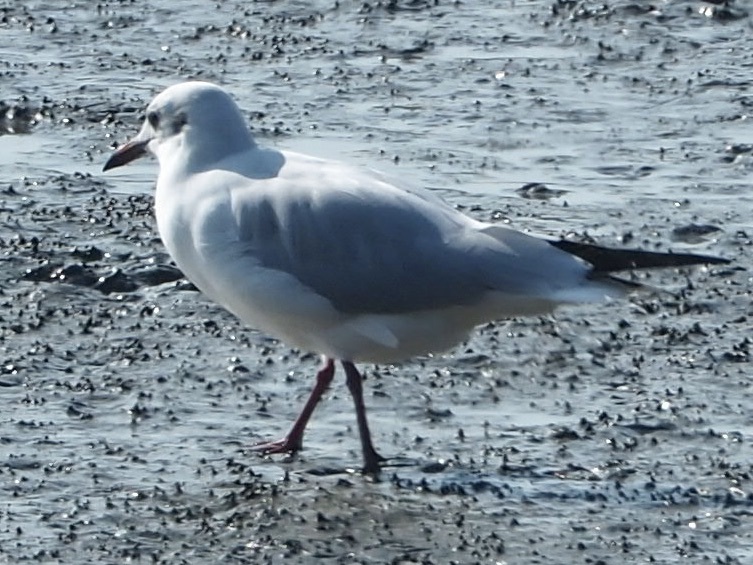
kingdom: Animalia
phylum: Chordata
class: Aves
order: Charadriiformes
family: Laridae
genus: Chroicocephalus
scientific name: Chroicocephalus ridibundus
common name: Black-headed gull
